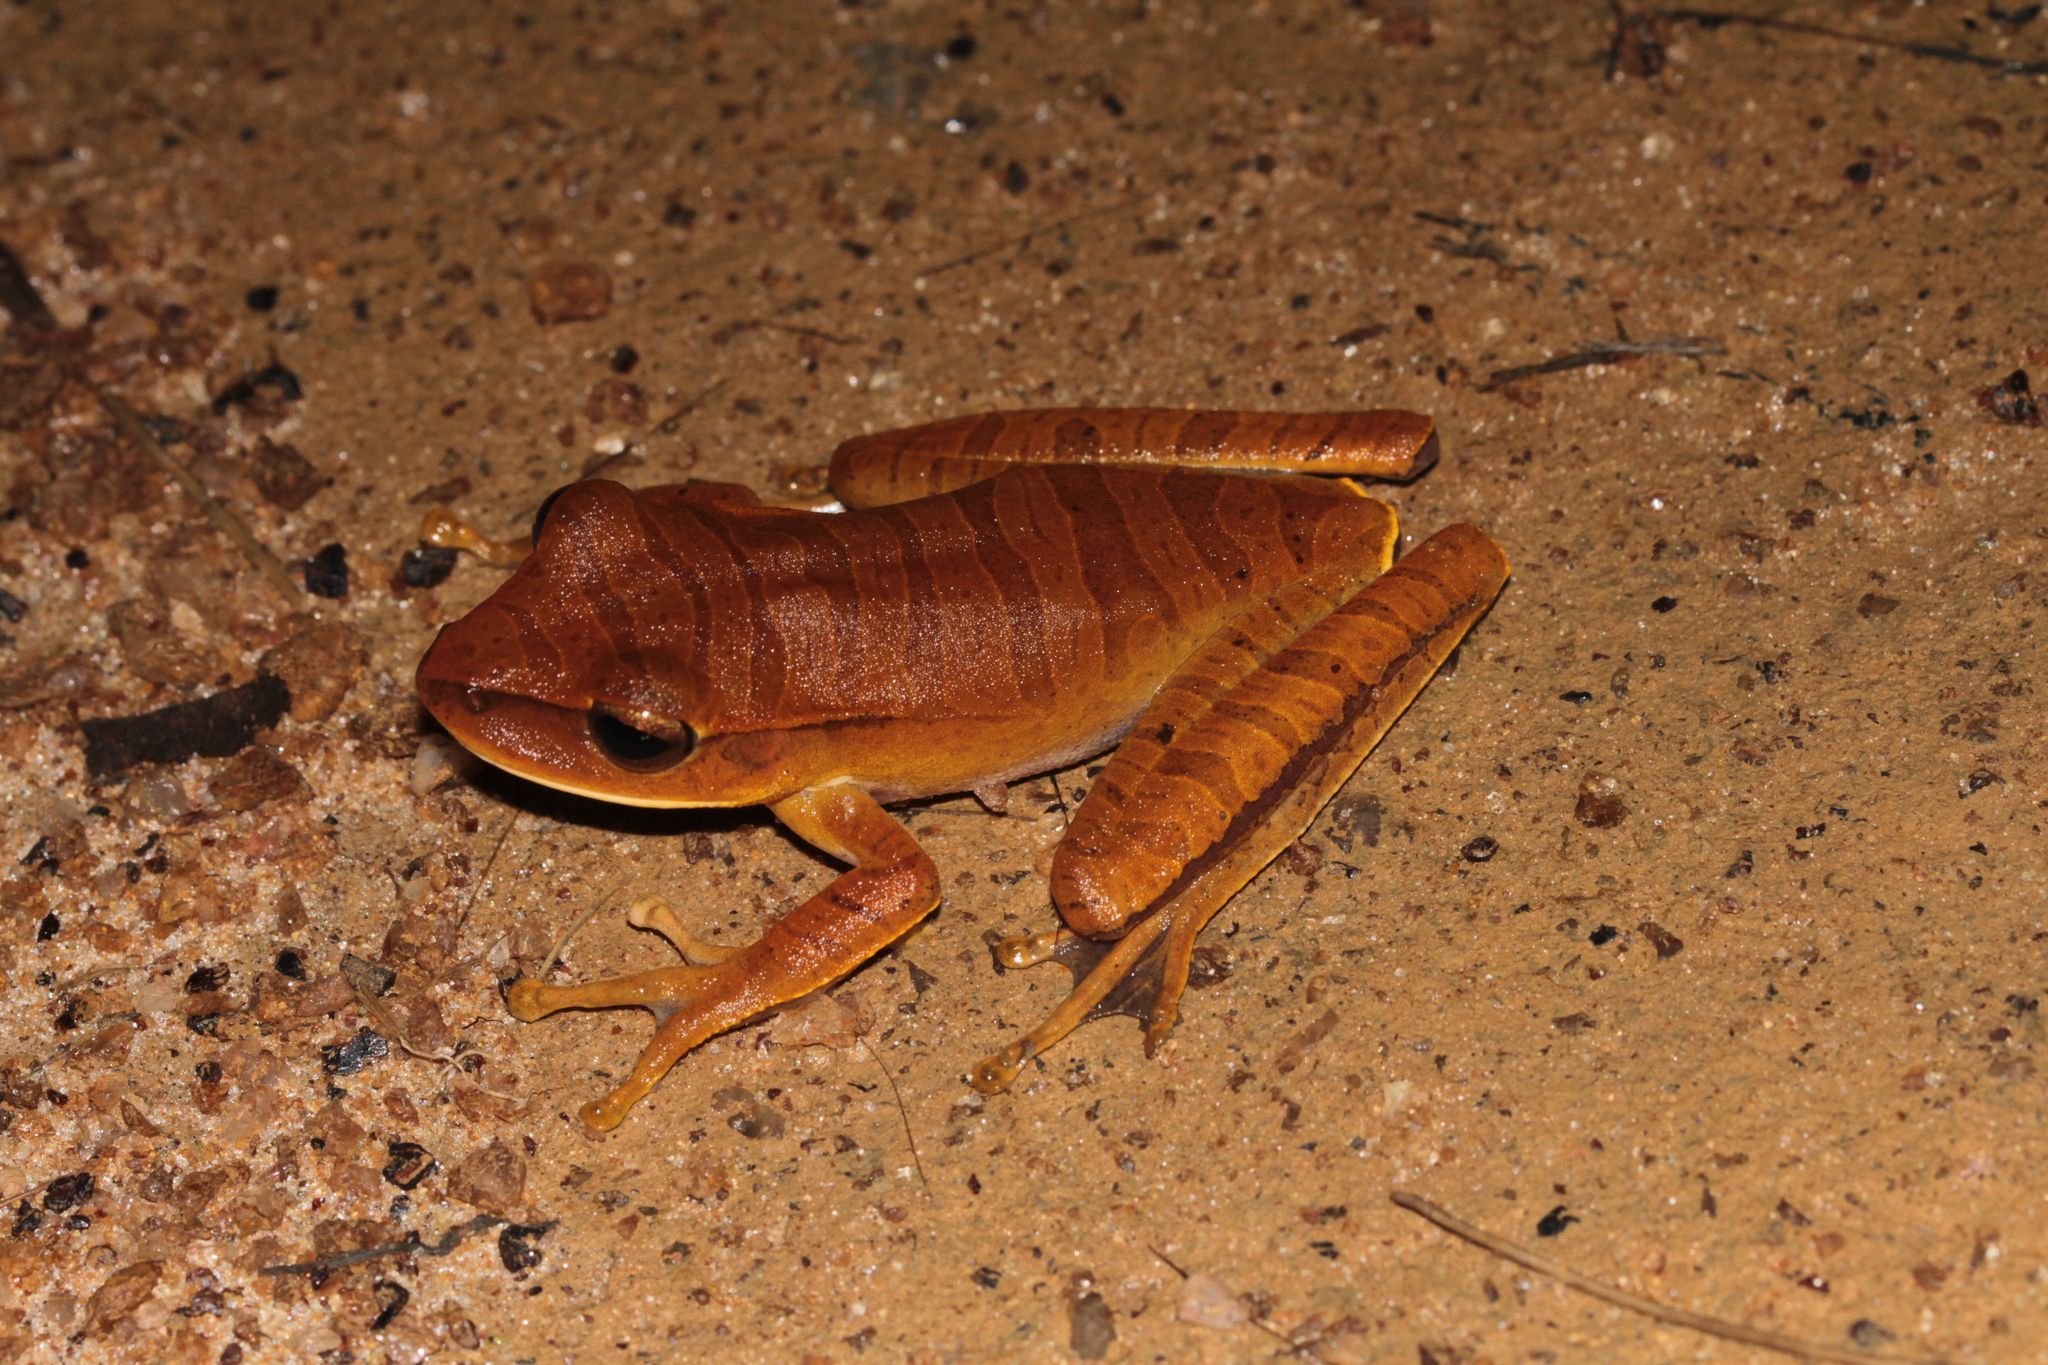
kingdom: Animalia
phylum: Chordata
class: Amphibia
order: Anura
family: Hylidae
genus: Boana
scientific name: Boana multifasciata
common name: Many-banded treefrog
